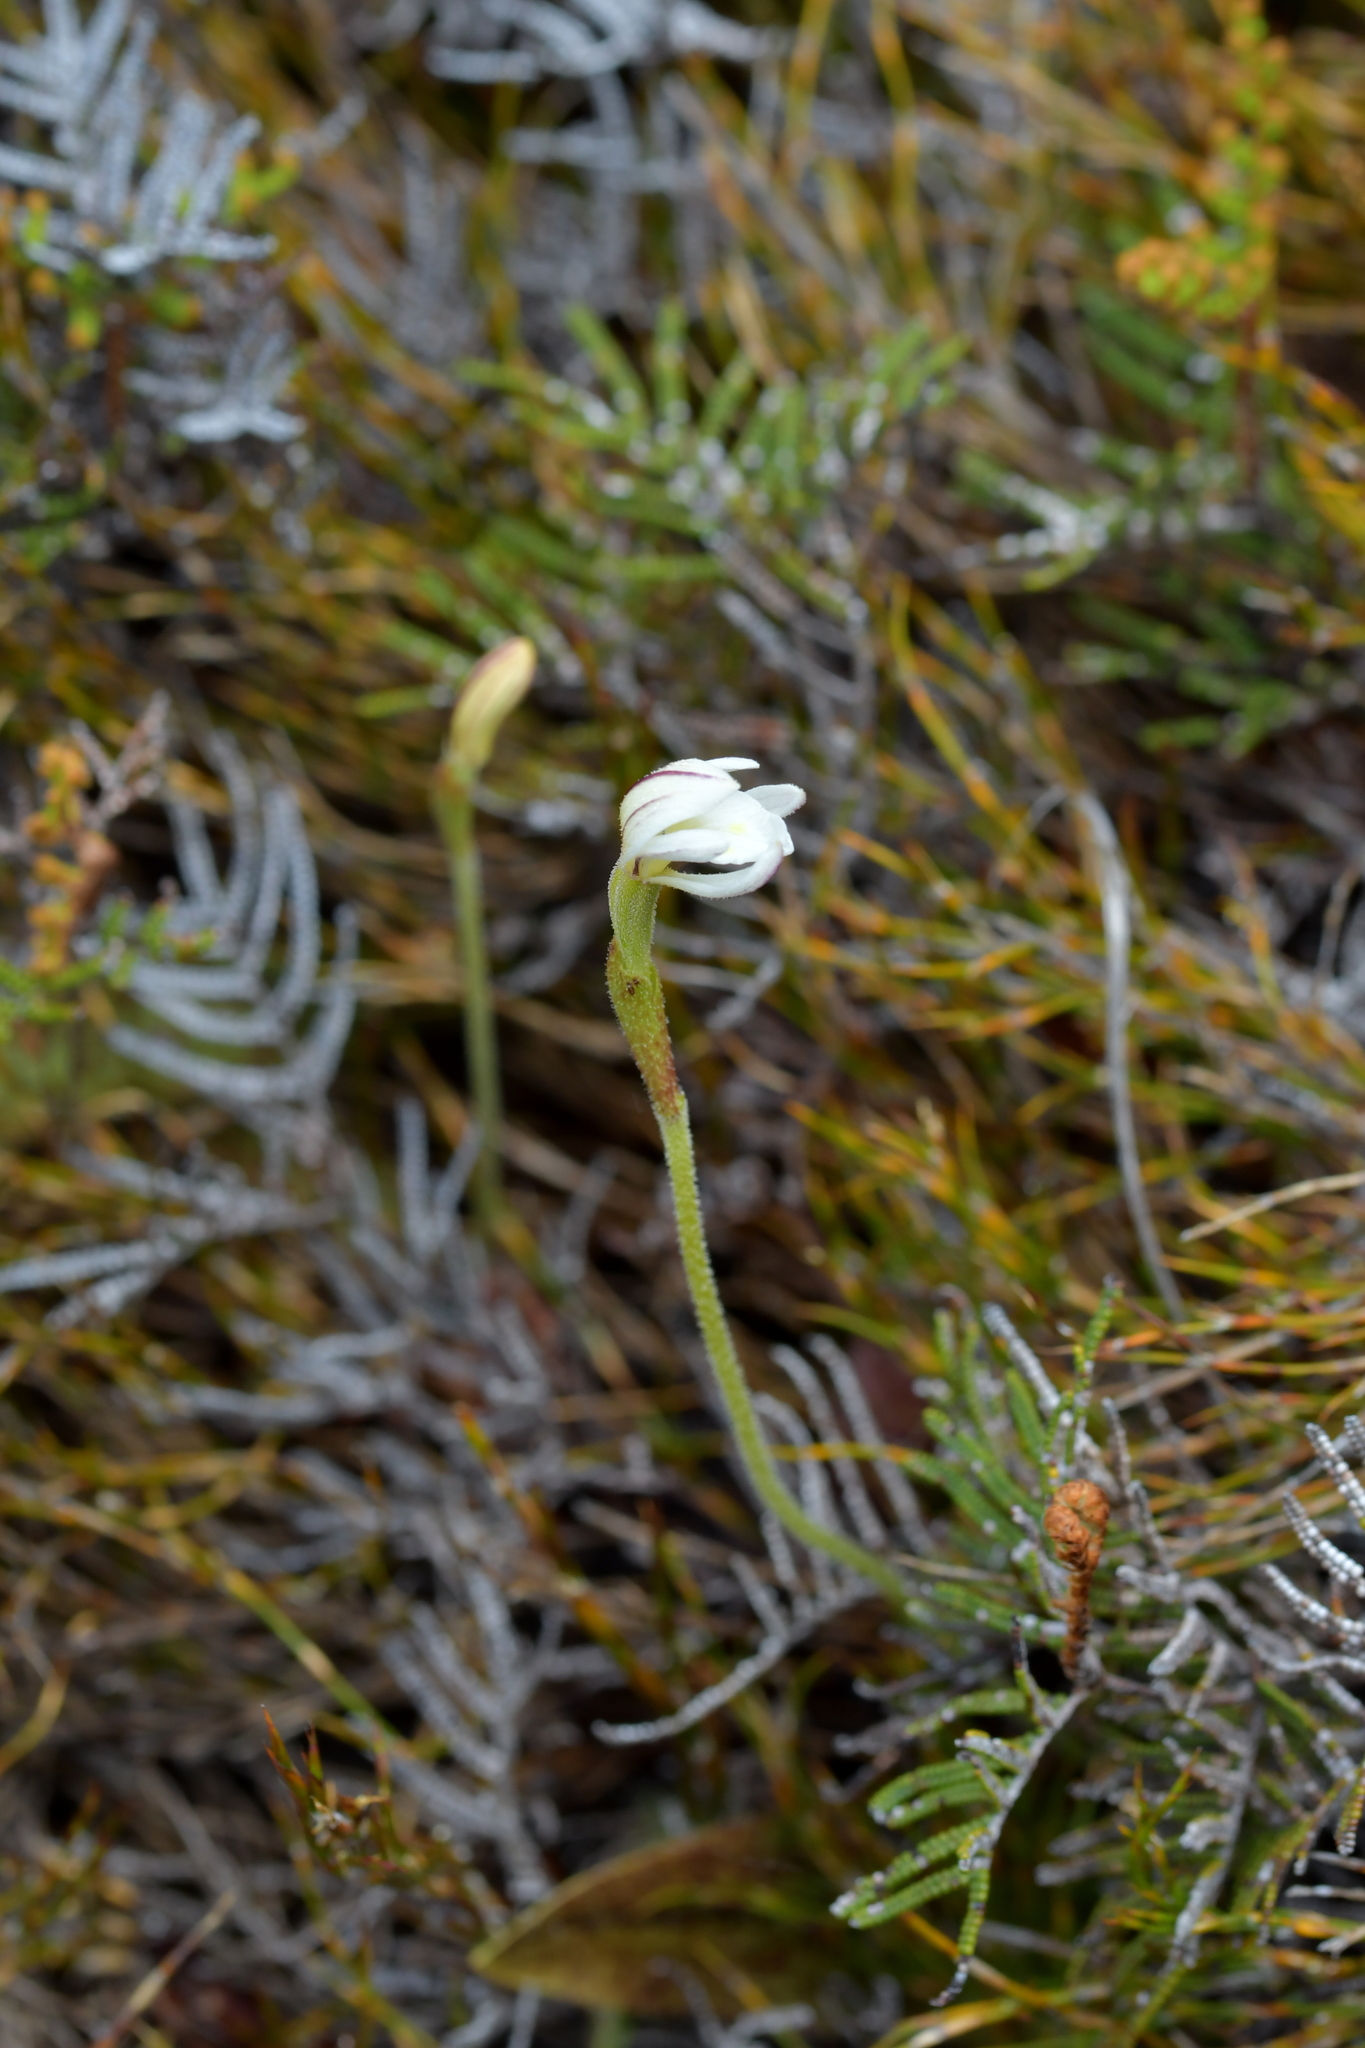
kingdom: Plantae
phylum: Tracheophyta
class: Liliopsida
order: Asparagales
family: Orchidaceae
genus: Aporostylis
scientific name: Aporostylis bifolia
